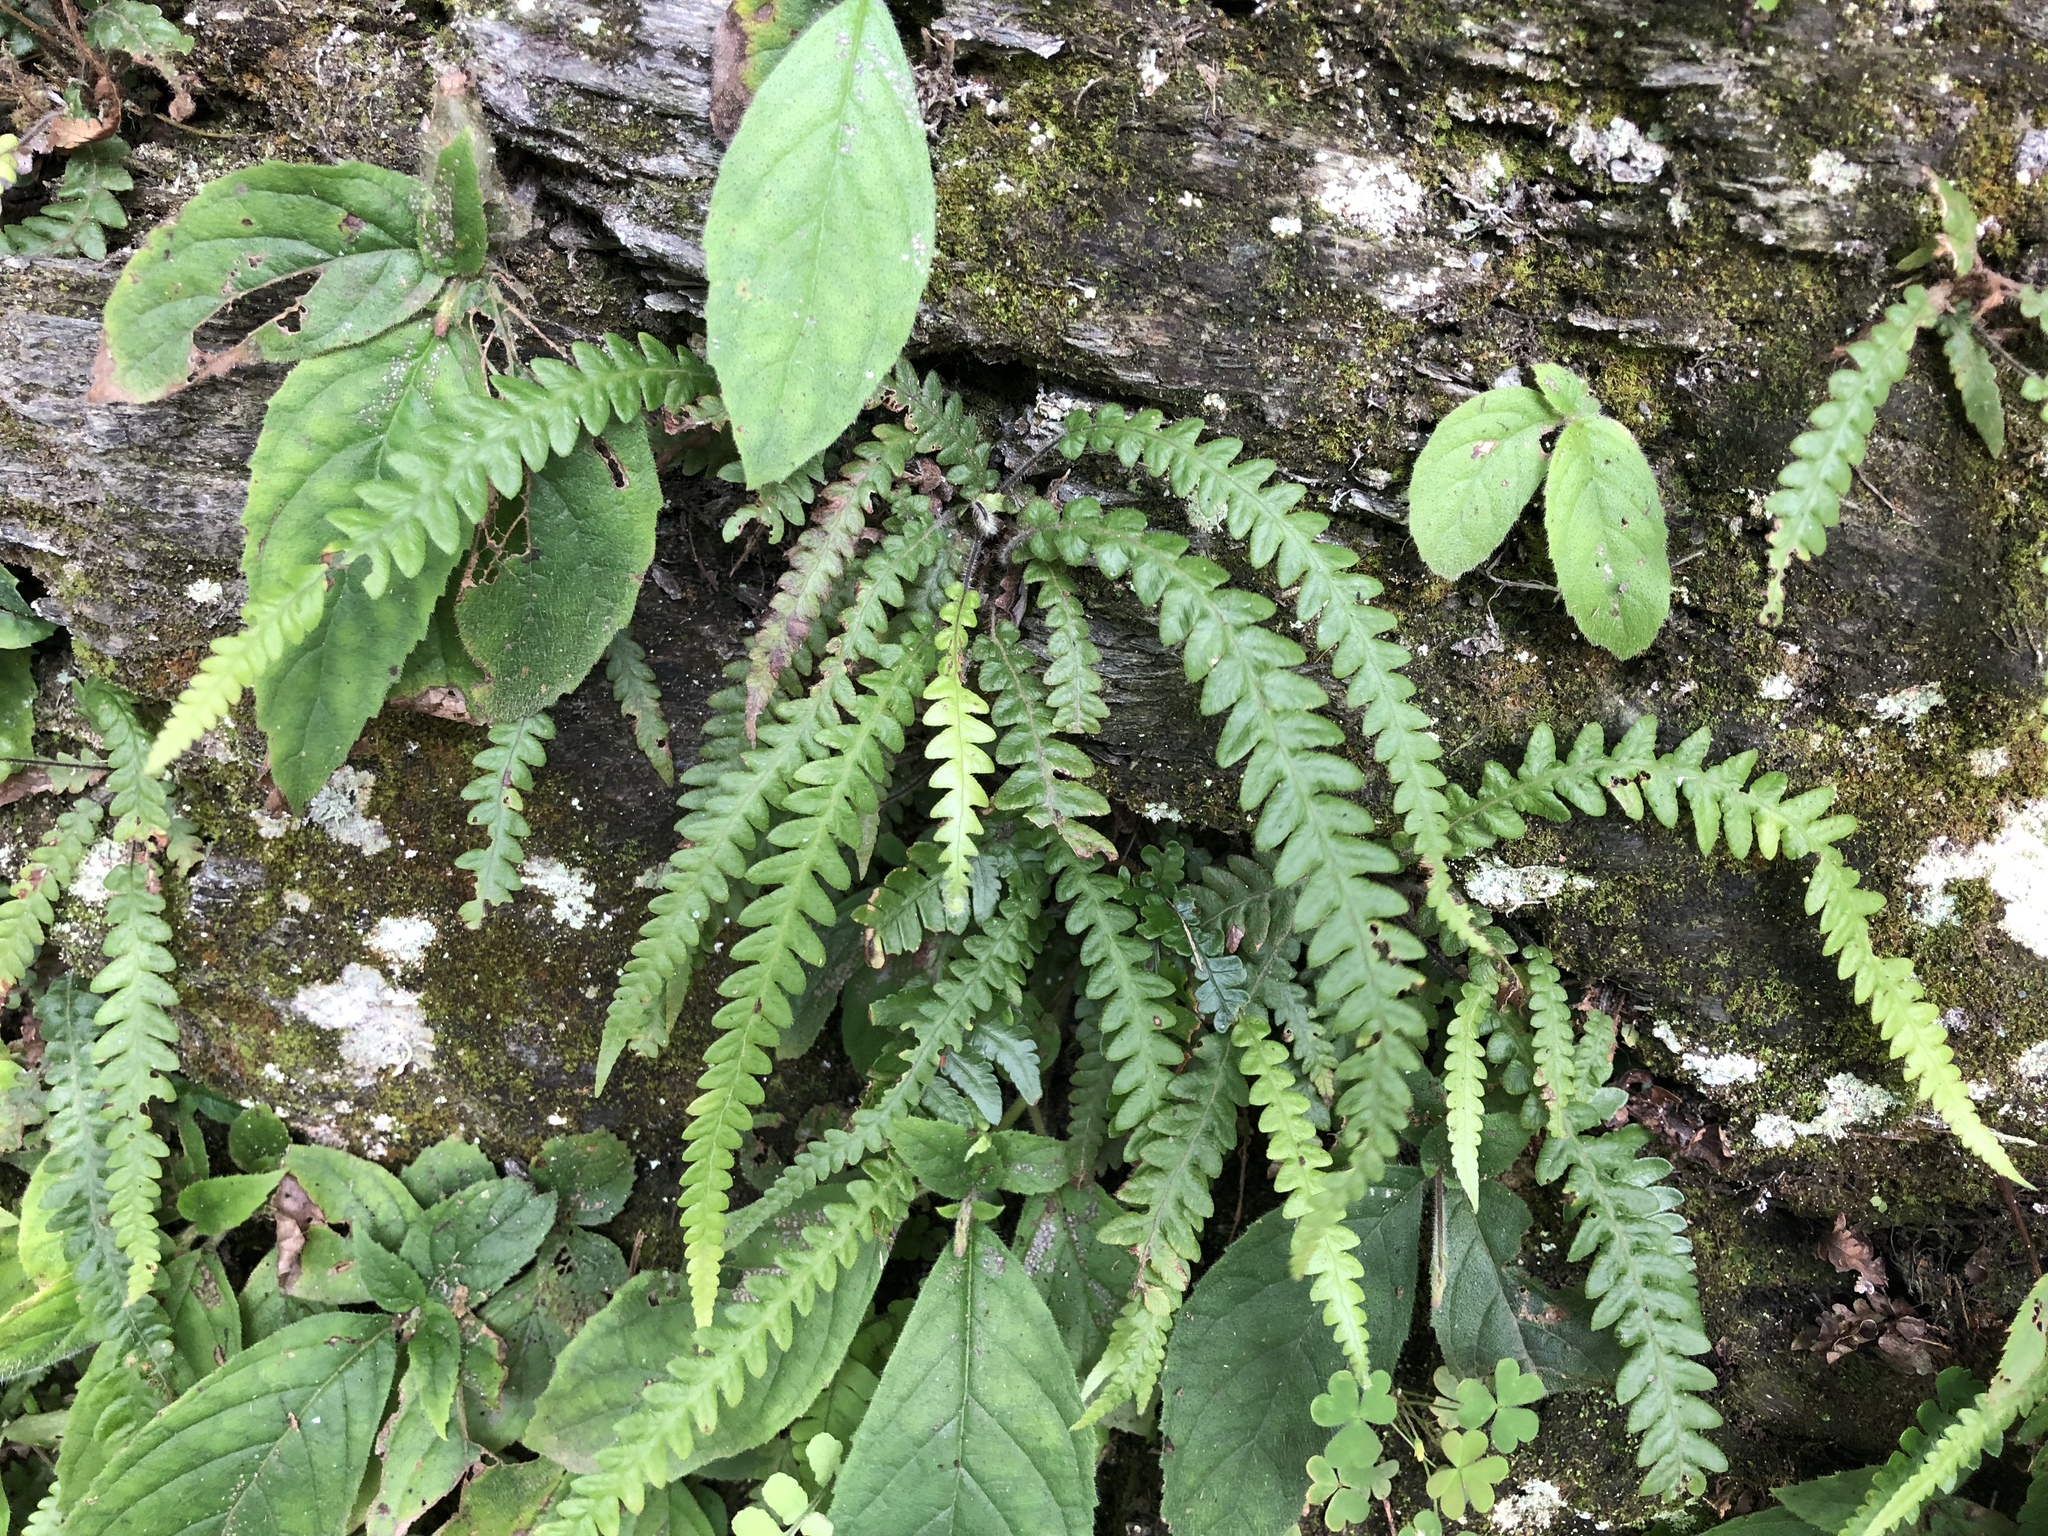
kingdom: Plantae
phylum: Tracheophyta
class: Polypodiopsida
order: Polypodiales
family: Thelypteridaceae
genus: Phegopteris
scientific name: Phegopteris decursive-pinnata
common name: Japanese beech fern
